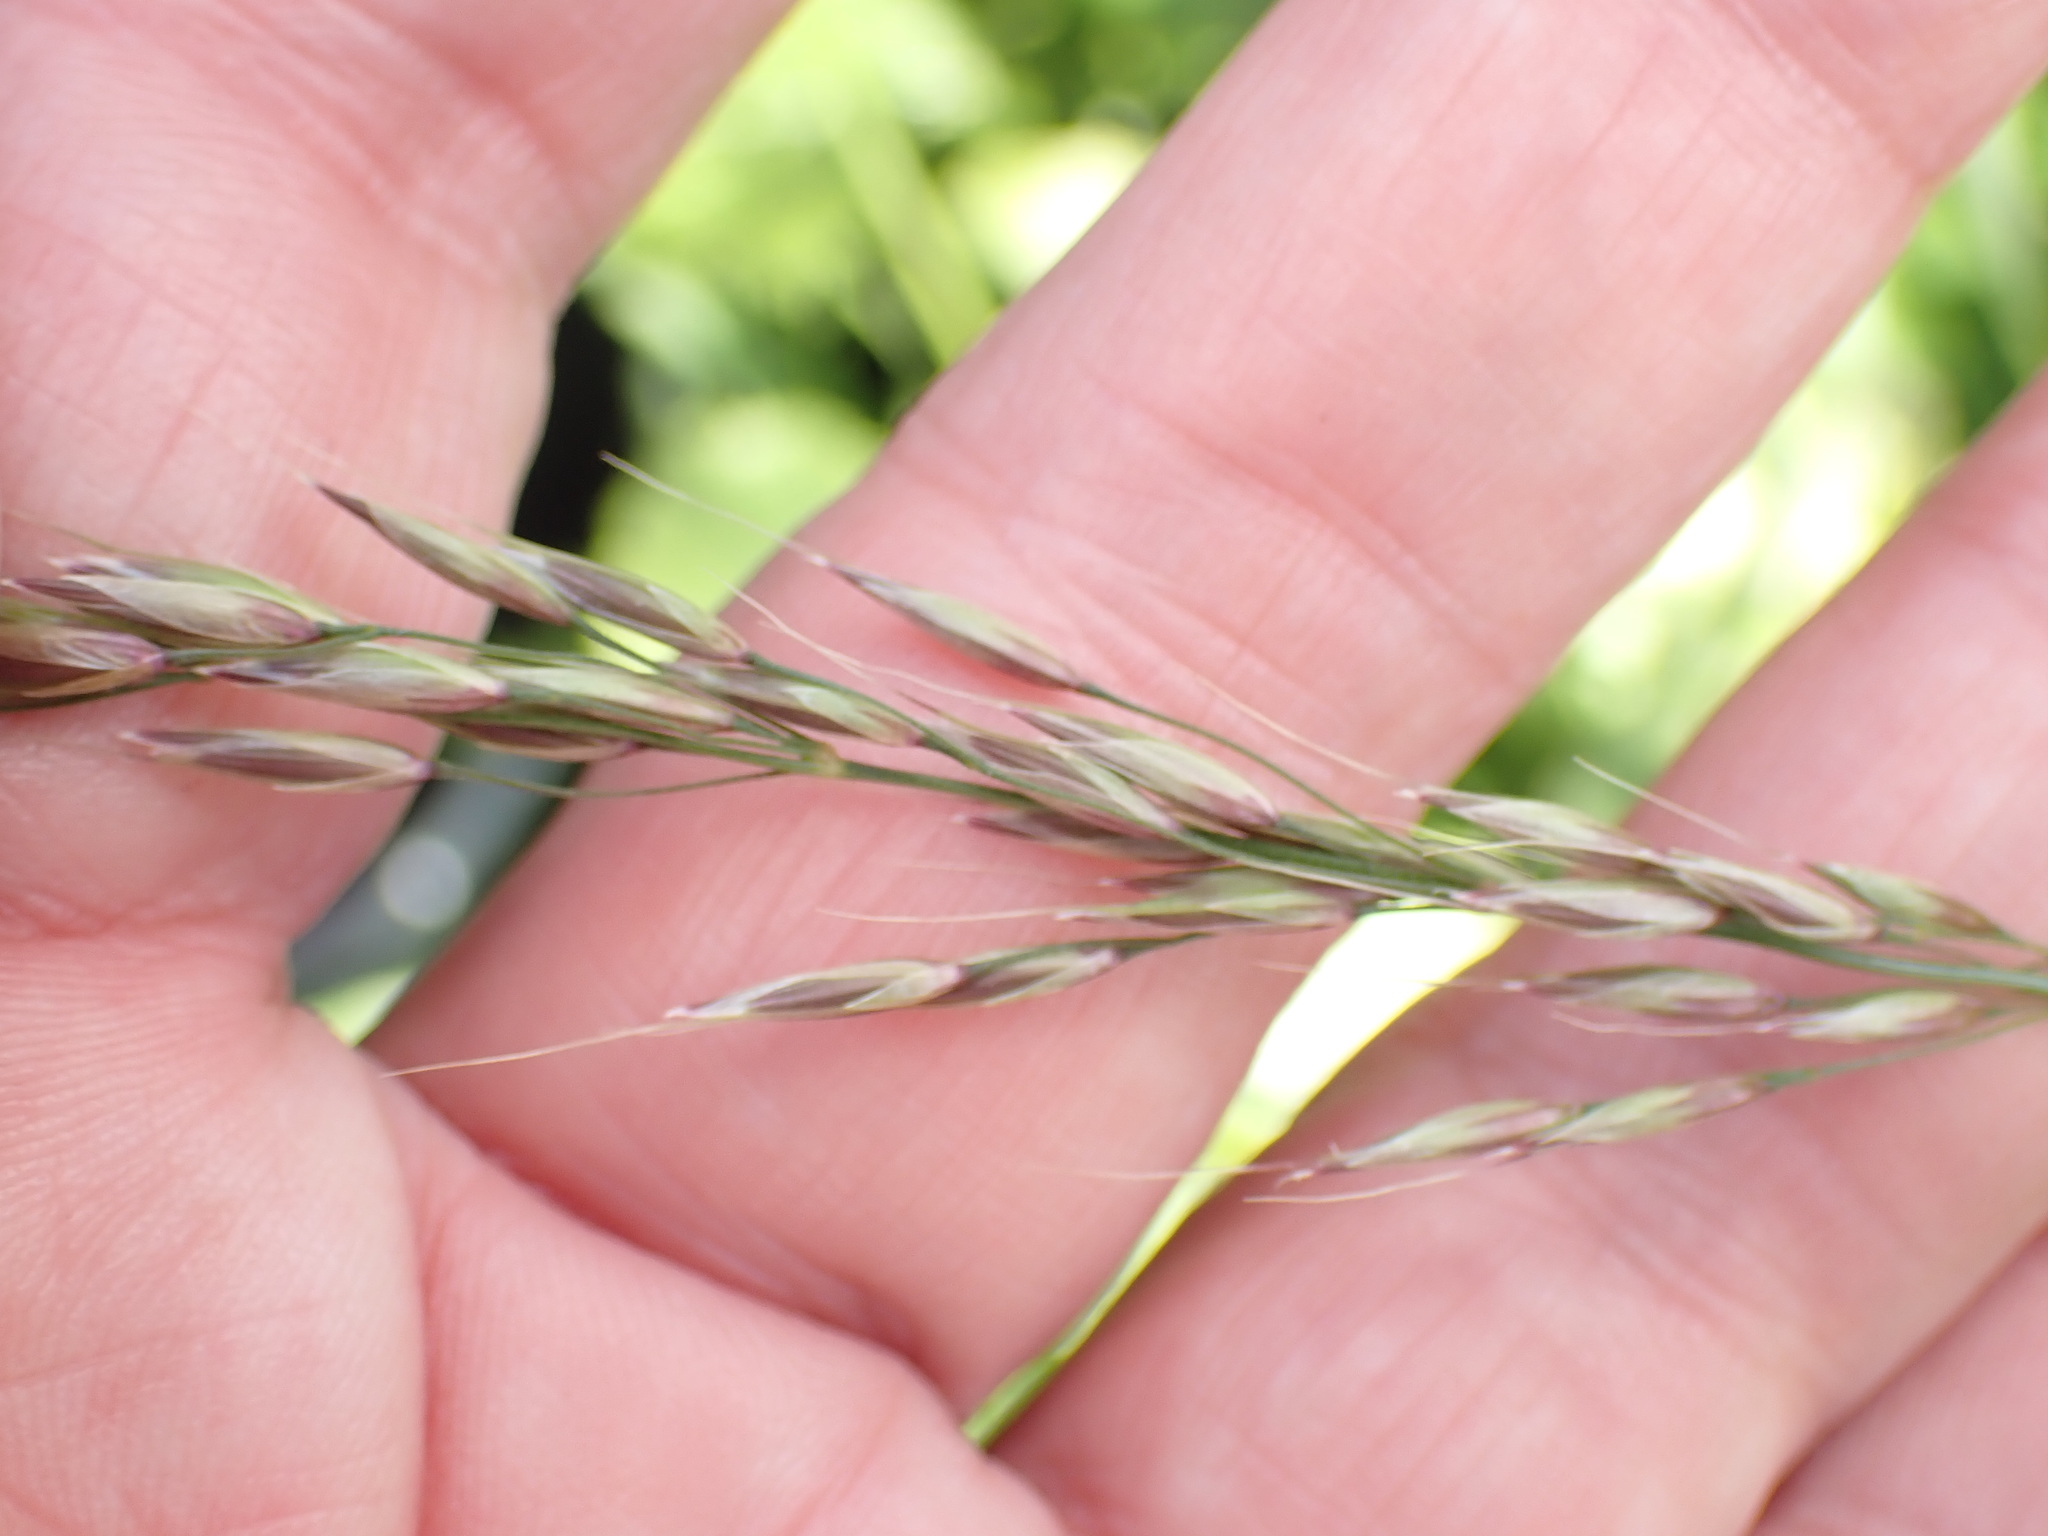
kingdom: Plantae
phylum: Tracheophyta
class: Liliopsida
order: Poales
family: Poaceae
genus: Arrhenatherum
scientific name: Arrhenatherum elatius
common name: Tall oatgrass
